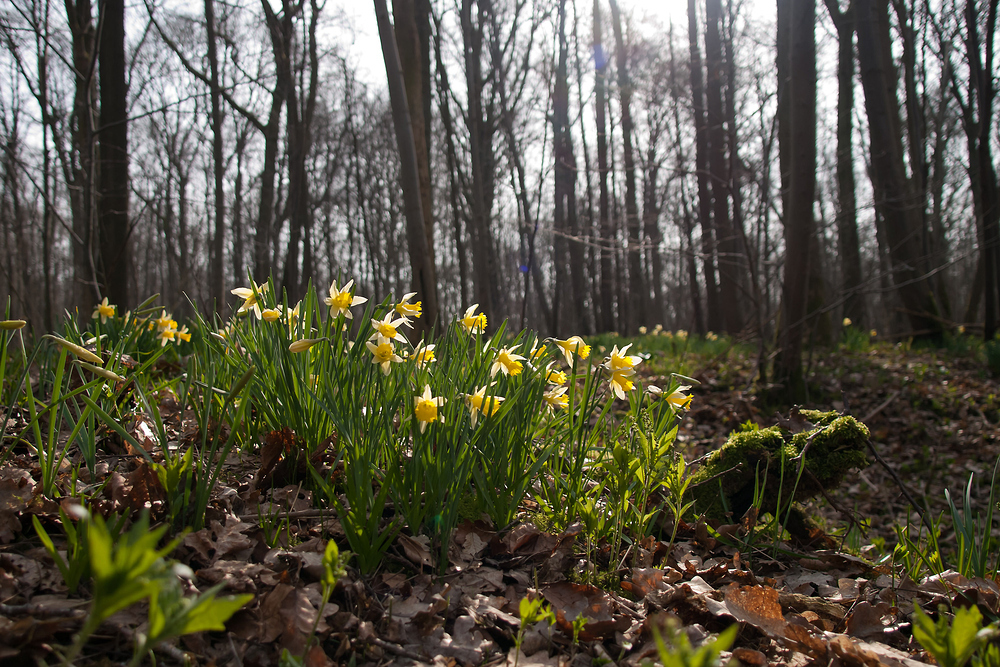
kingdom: Plantae
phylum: Tracheophyta
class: Liliopsida
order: Asparagales
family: Amaryllidaceae
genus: Narcissus
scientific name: Narcissus pseudonarcissus
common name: Daffodil
